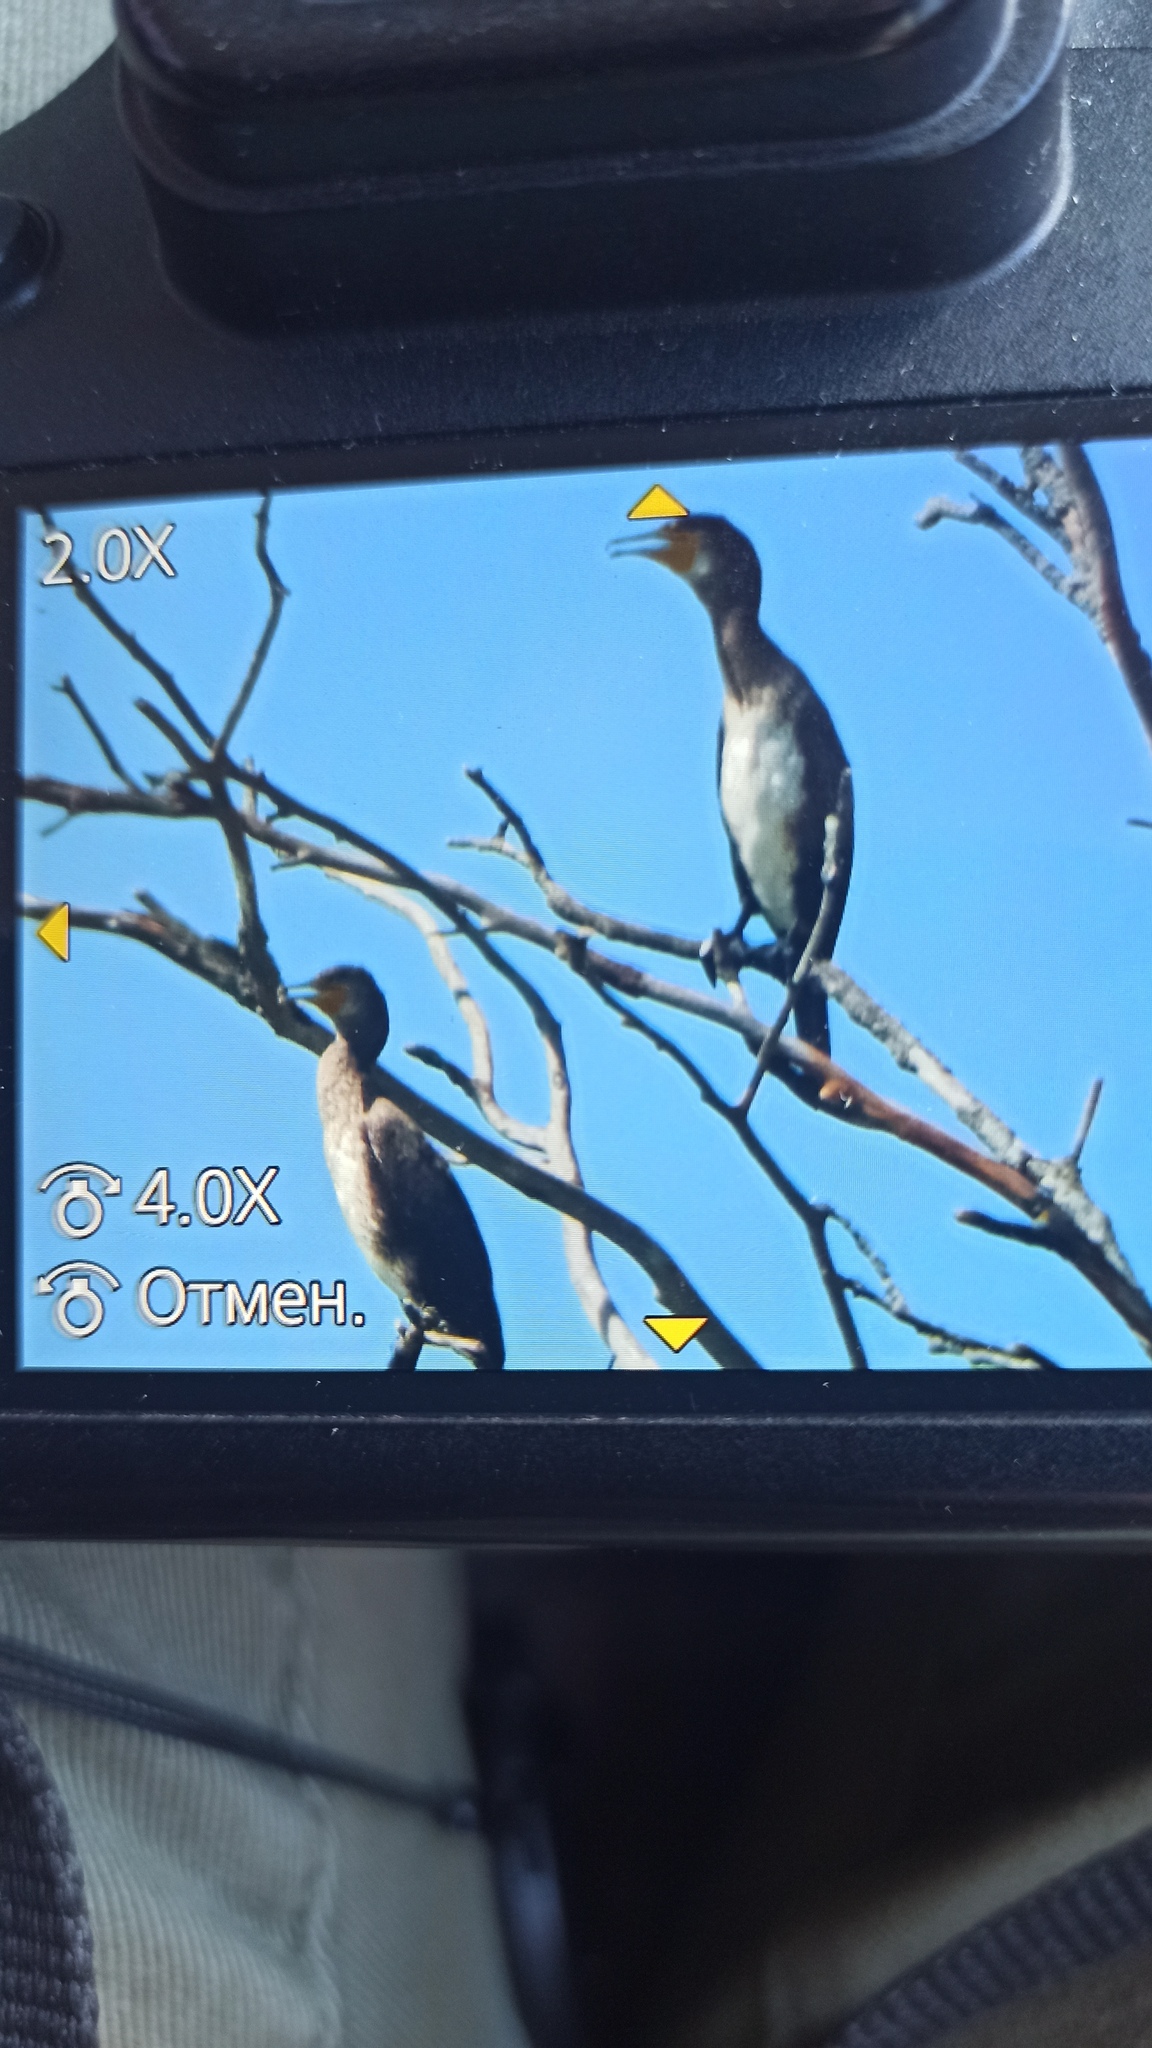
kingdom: Animalia
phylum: Chordata
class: Aves
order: Suliformes
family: Phalacrocoracidae
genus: Phalacrocorax
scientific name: Phalacrocorax carbo
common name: Great cormorant
